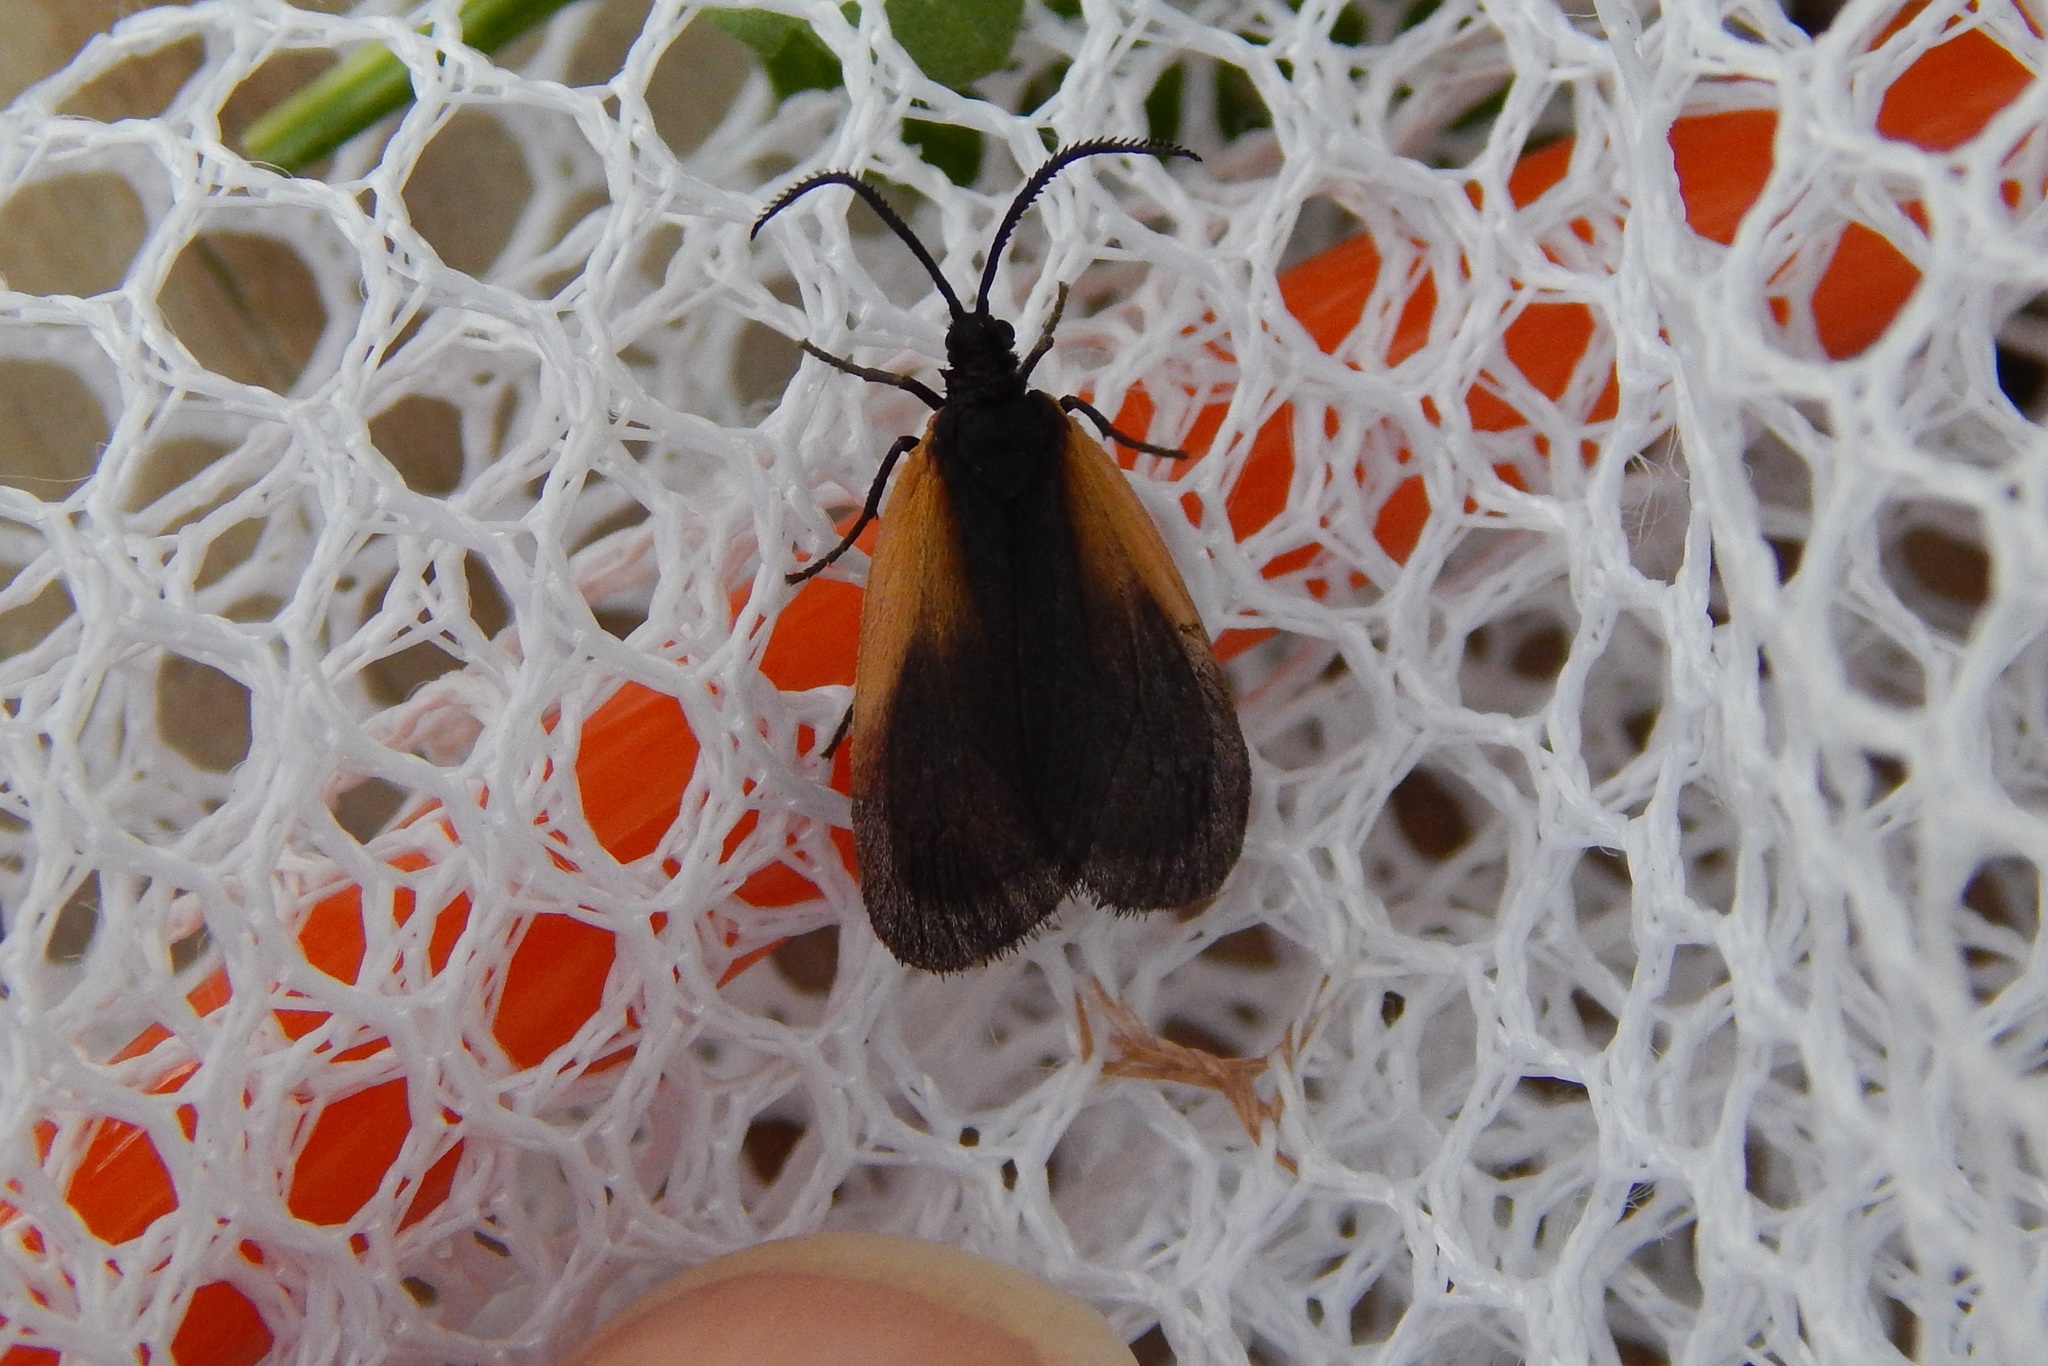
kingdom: Animalia
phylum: Arthropoda
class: Insecta
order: Lepidoptera
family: Zygaenidae
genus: Malthaca
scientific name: Malthaca dimidiata
